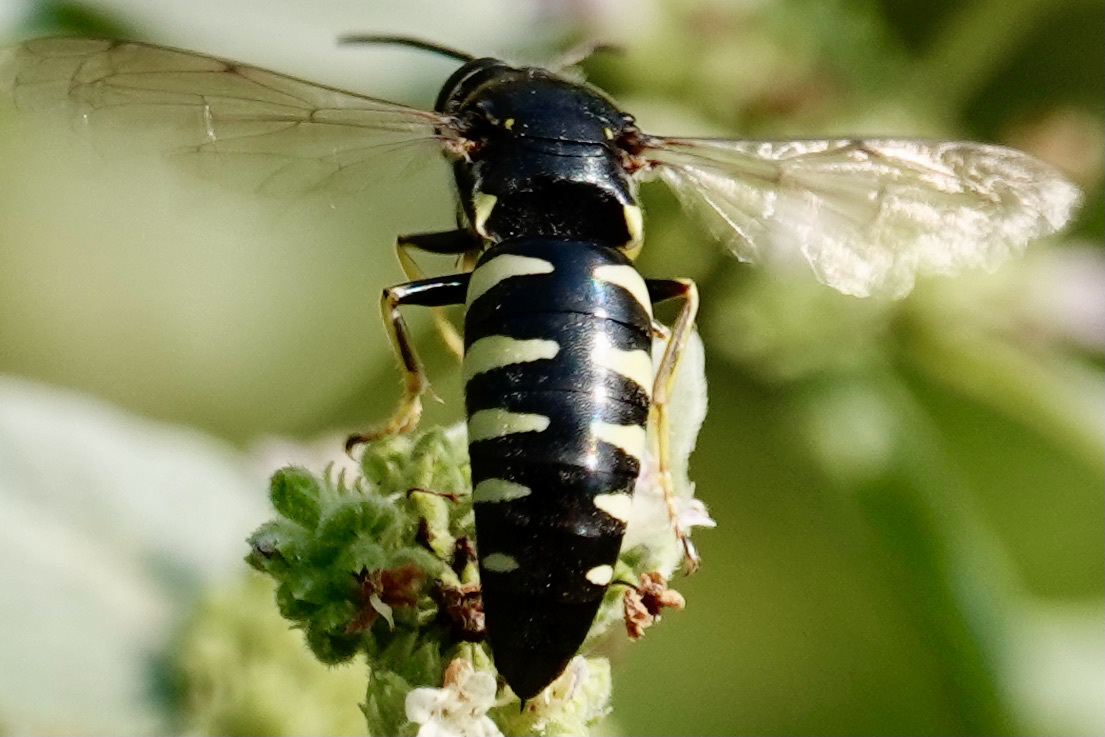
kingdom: Animalia
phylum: Arthropoda
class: Insecta
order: Hymenoptera
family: Crabronidae
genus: Bicyrtes
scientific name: Bicyrtes quadrifasciatus
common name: Four-banded stink bug hunter wasp
